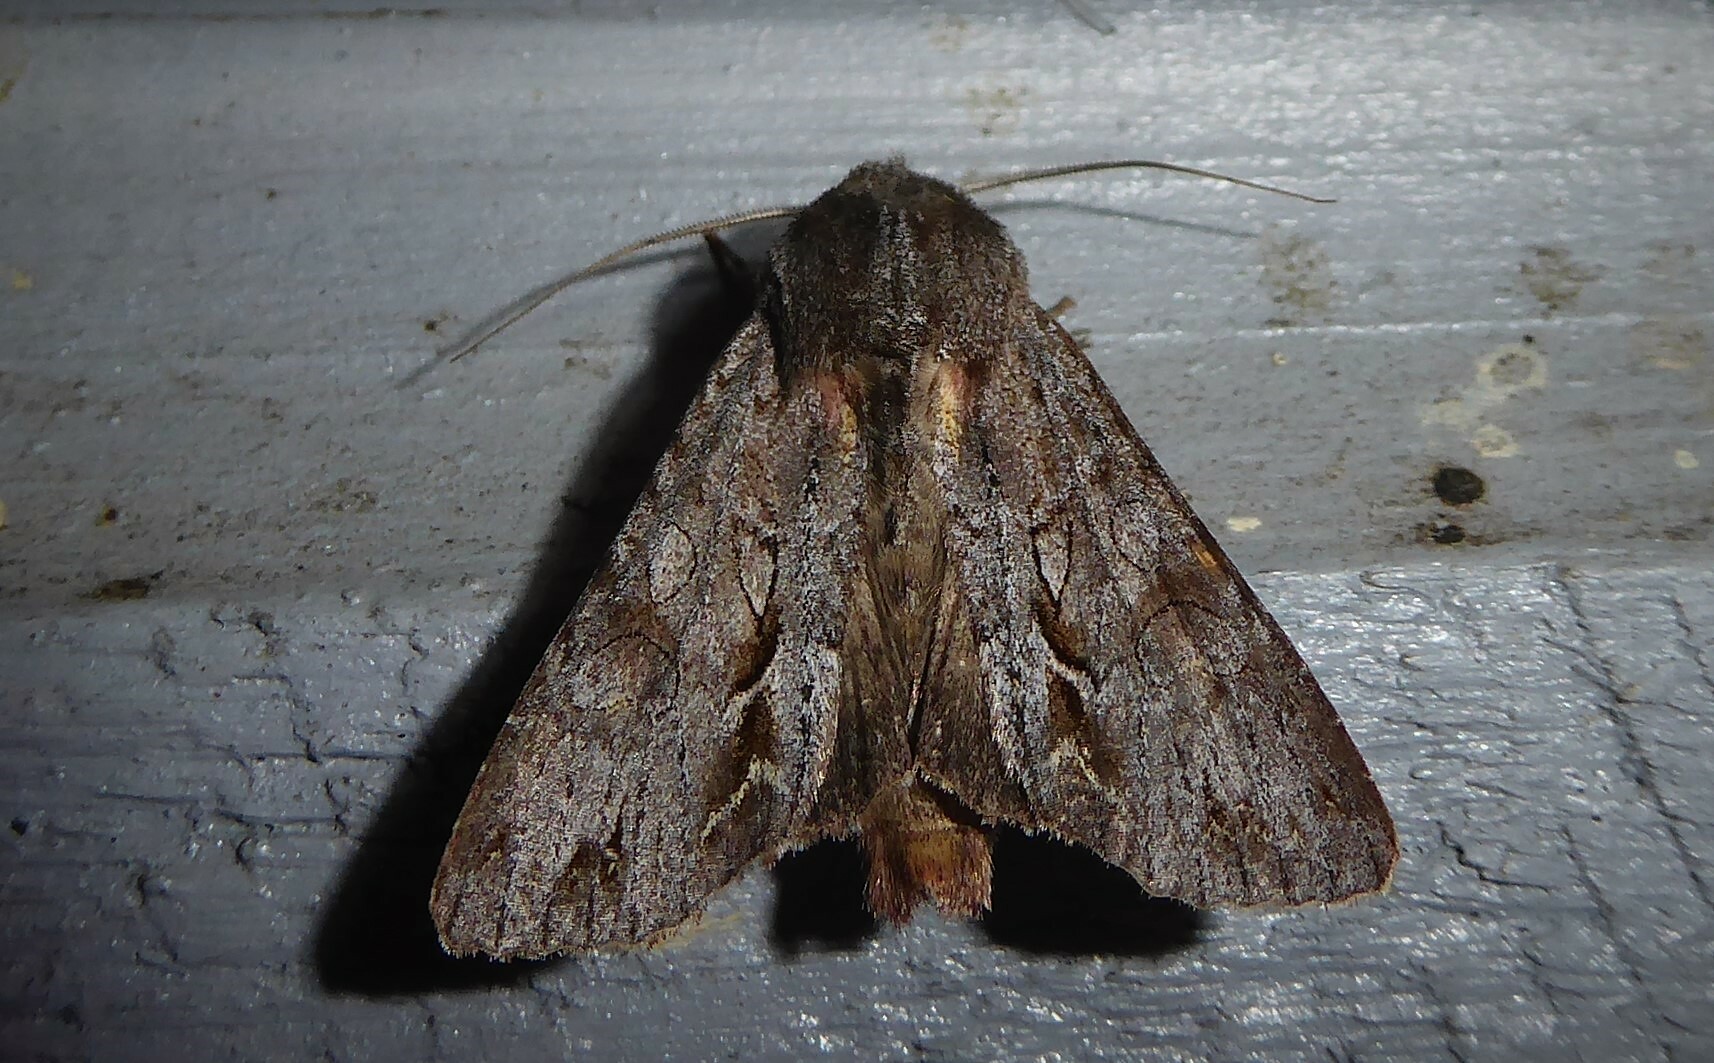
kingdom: Animalia
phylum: Arthropoda
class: Insecta
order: Lepidoptera
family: Noctuidae
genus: Ichneutica
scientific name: Ichneutica
